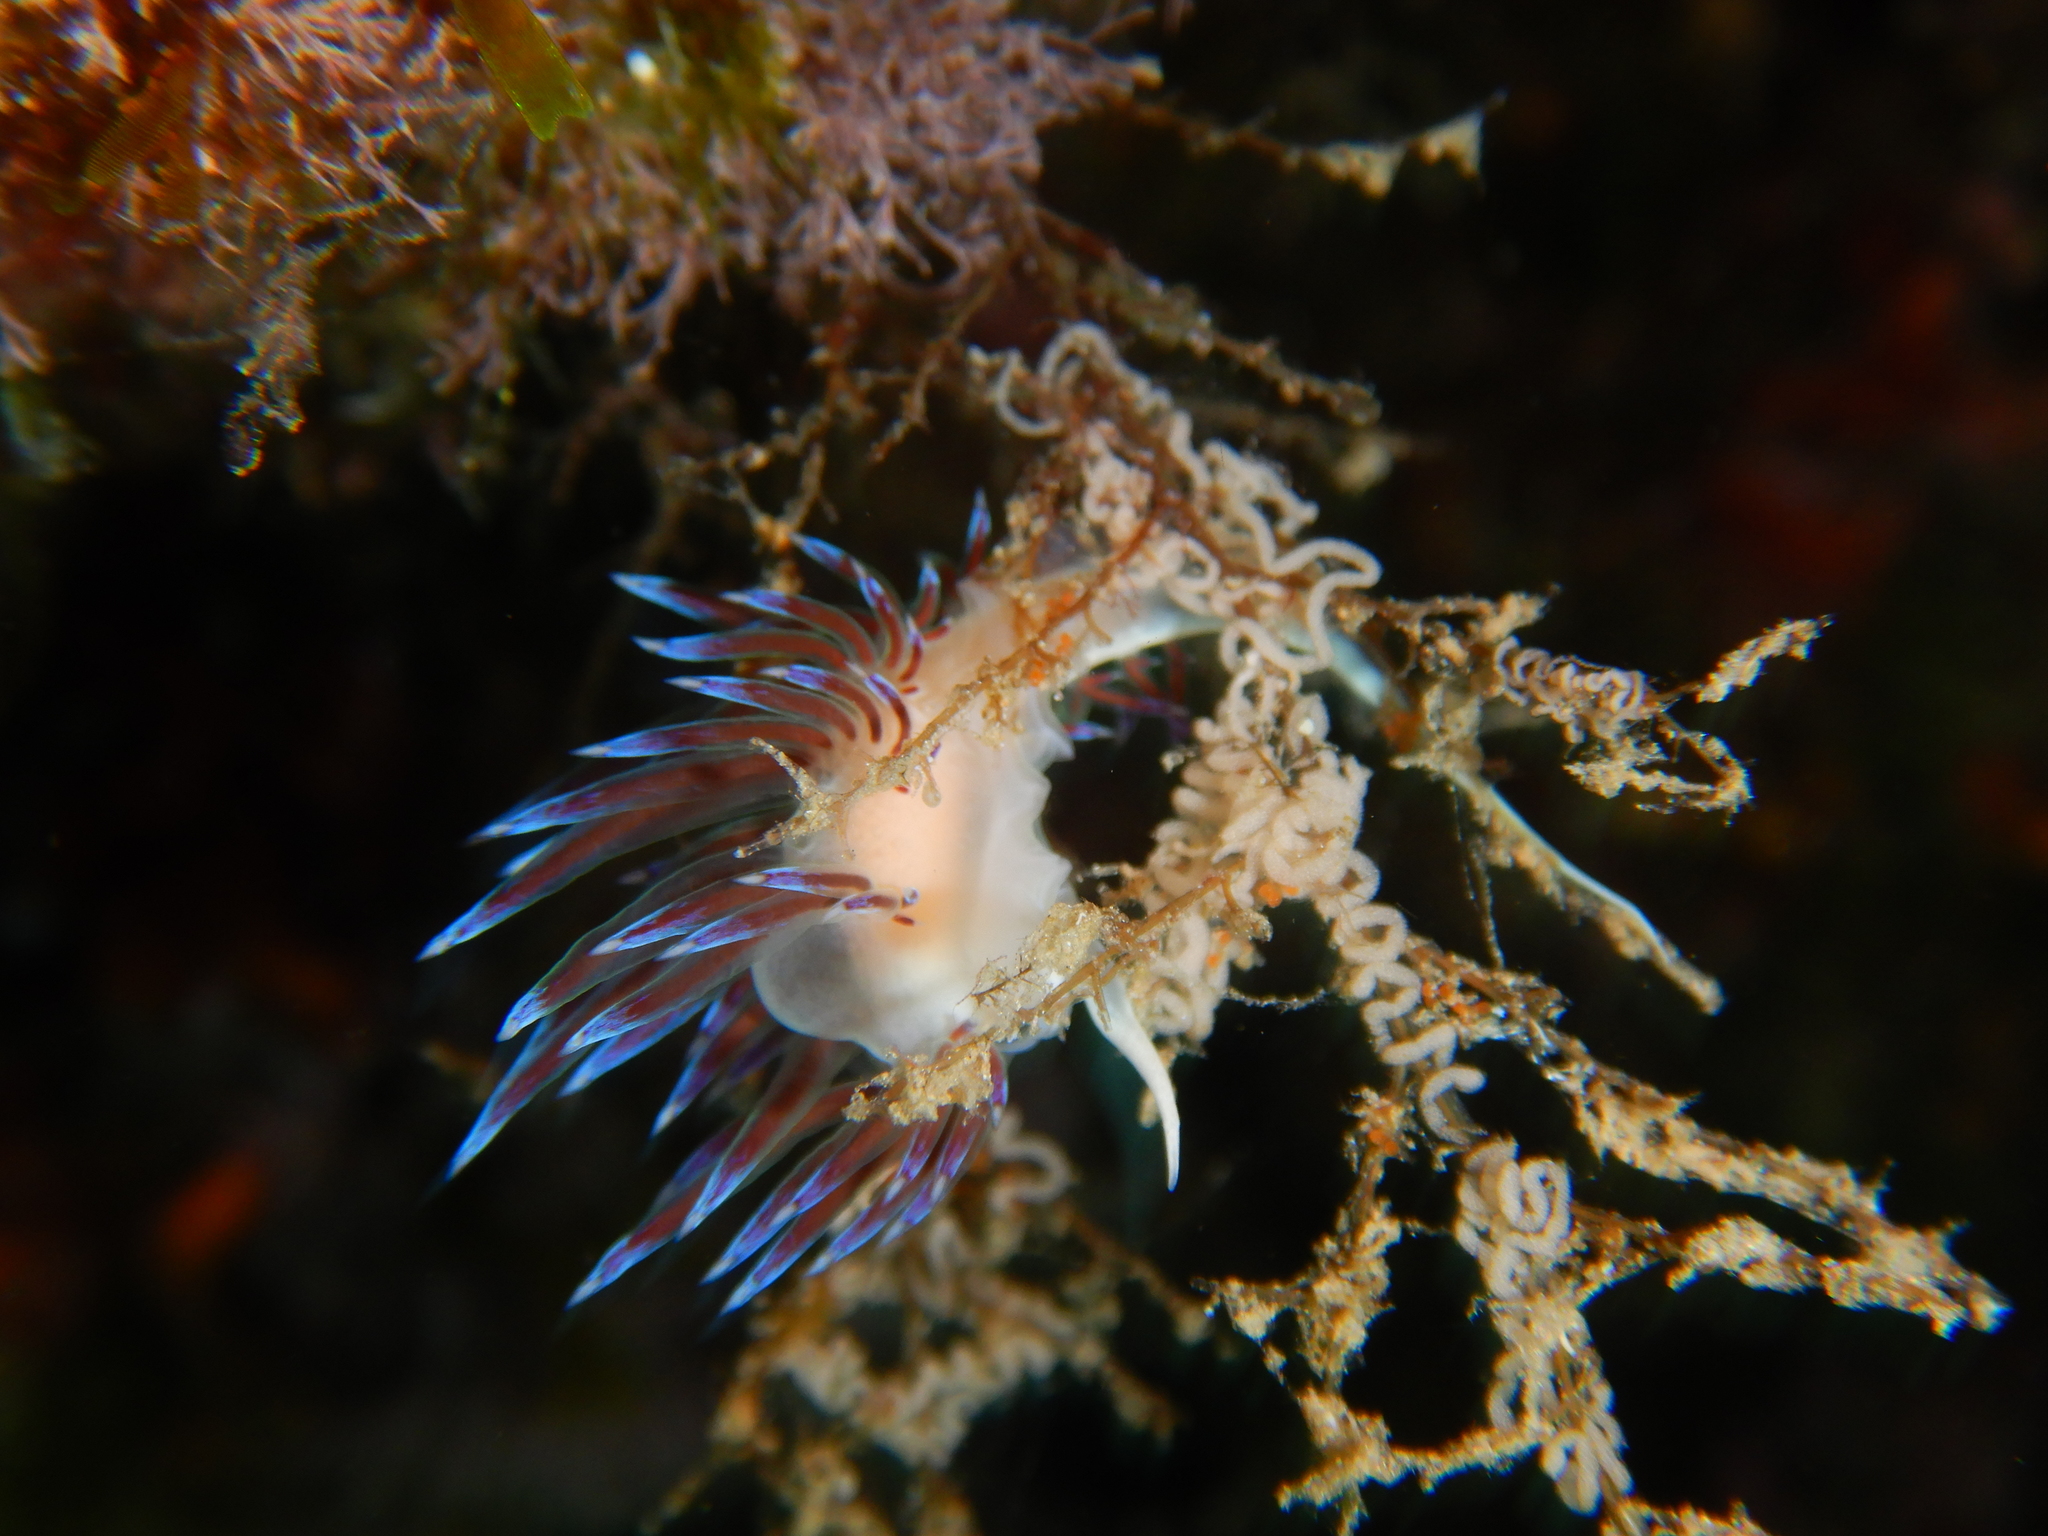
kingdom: Animalia
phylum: Mollusca
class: Gastropoda
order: Nudibranchia
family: Facelinidae
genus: Cratena
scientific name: Cratena peregrina
